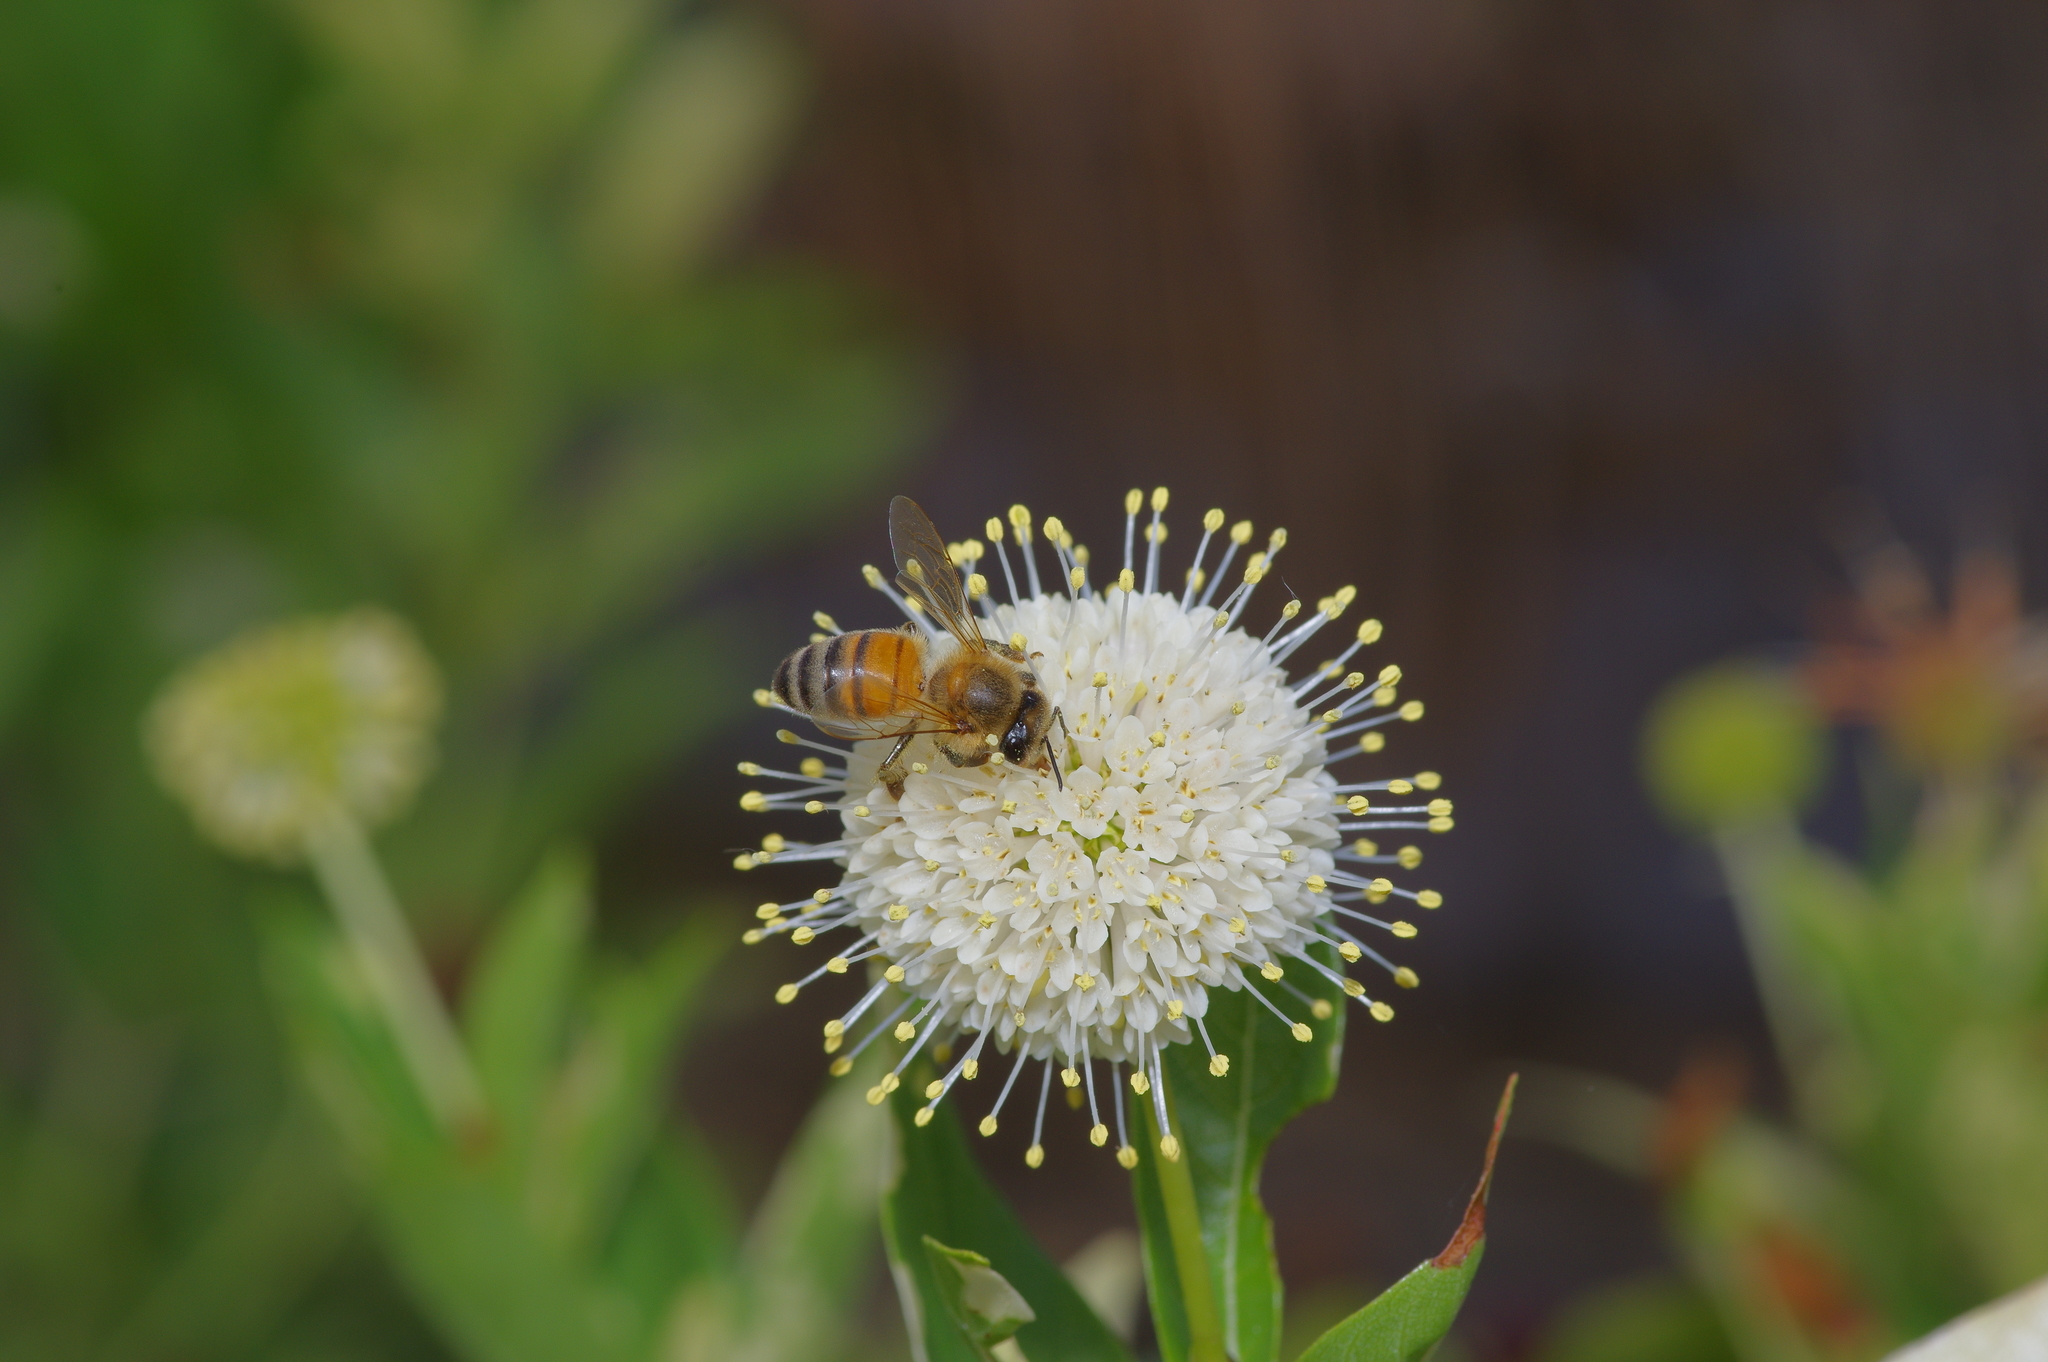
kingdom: Plantae
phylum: Tracheophyta
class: Magnoliopsida
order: Gentianales
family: Rubiaceae
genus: Cephalanthus
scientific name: Cephalanthus occidentalis
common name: Button-willow
